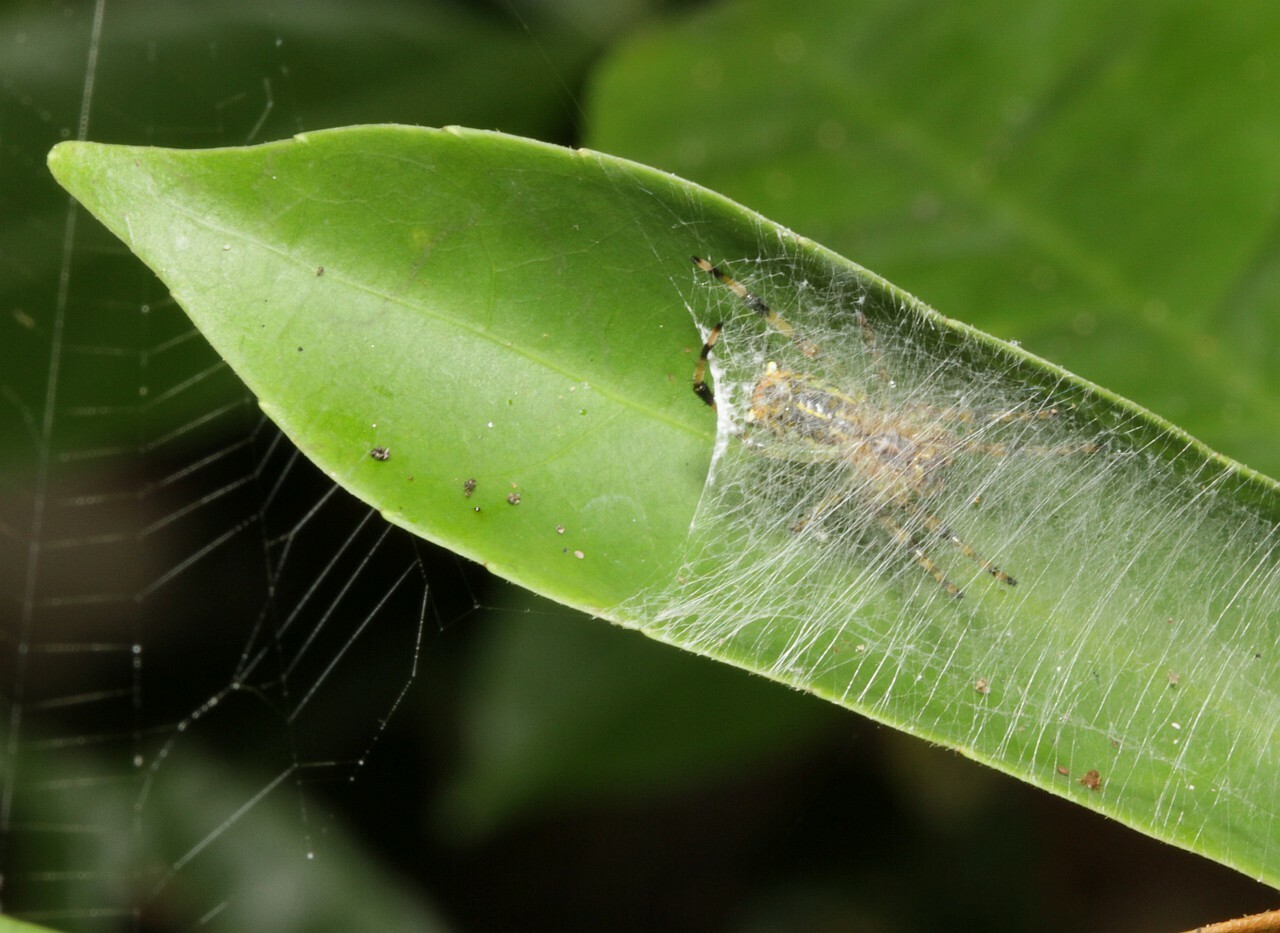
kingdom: Animalia
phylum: Arthropoda
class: Arachnida
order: Araneae
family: Araneidae
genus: Alpaida
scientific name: Alpaida truncata
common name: Orb weavers
